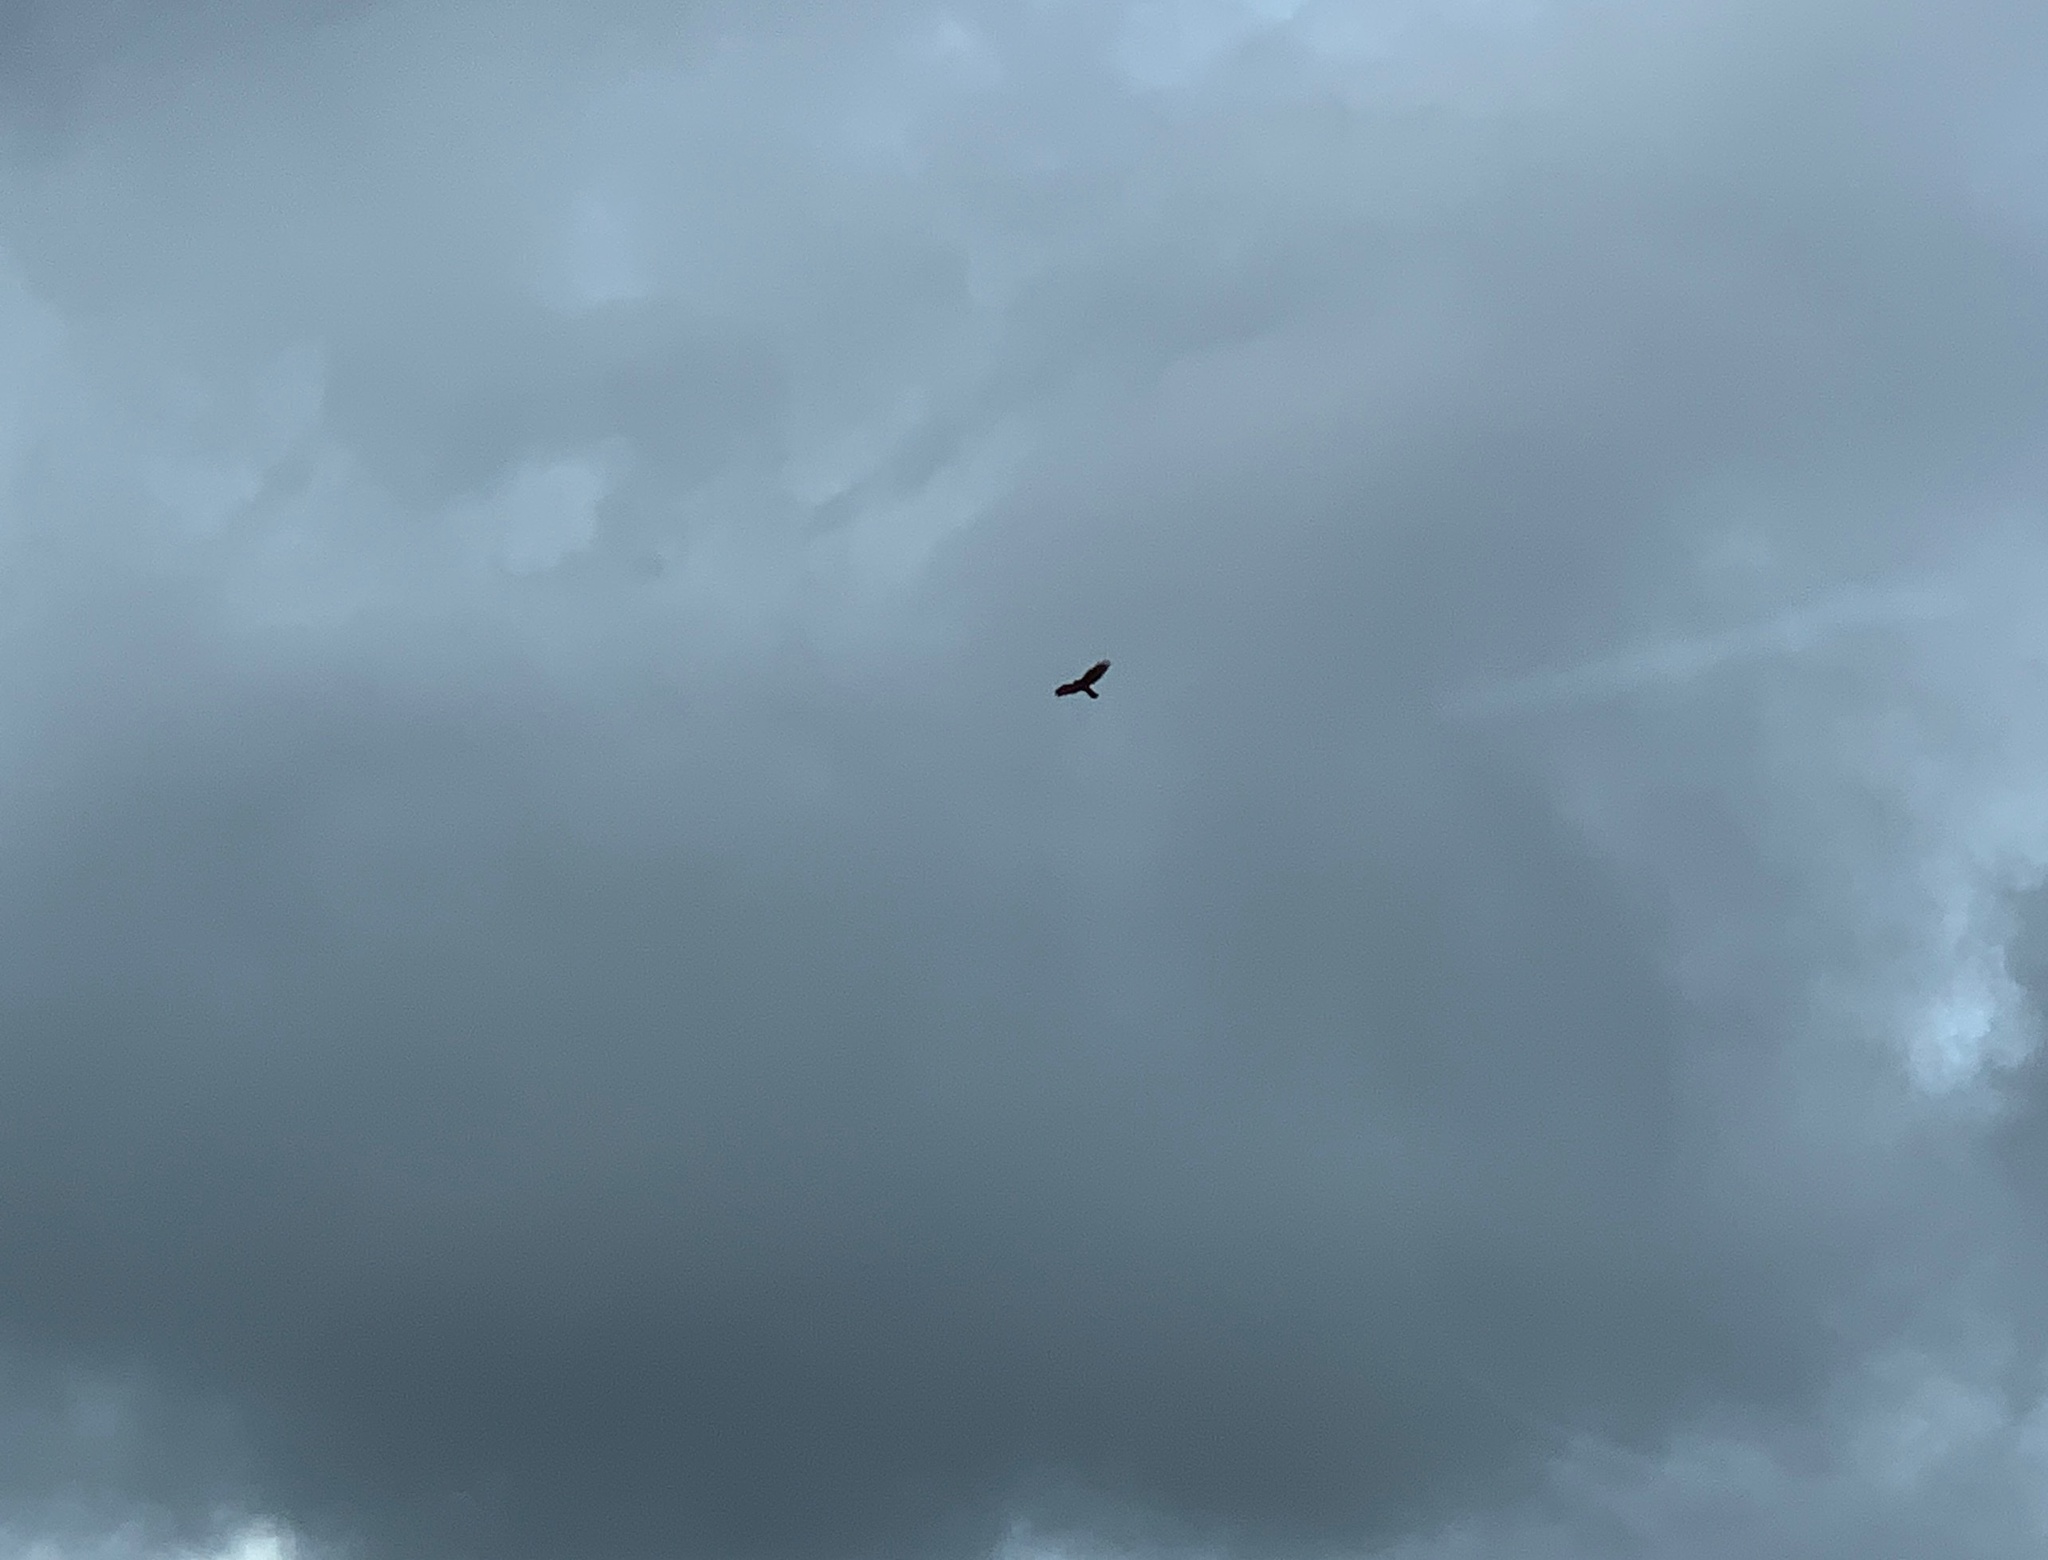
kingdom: Animalia
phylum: Chordata
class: Aves
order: Accipitriformes
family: Accipitridae
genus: Buteo
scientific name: Buteo buteo
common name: Common buzzard
